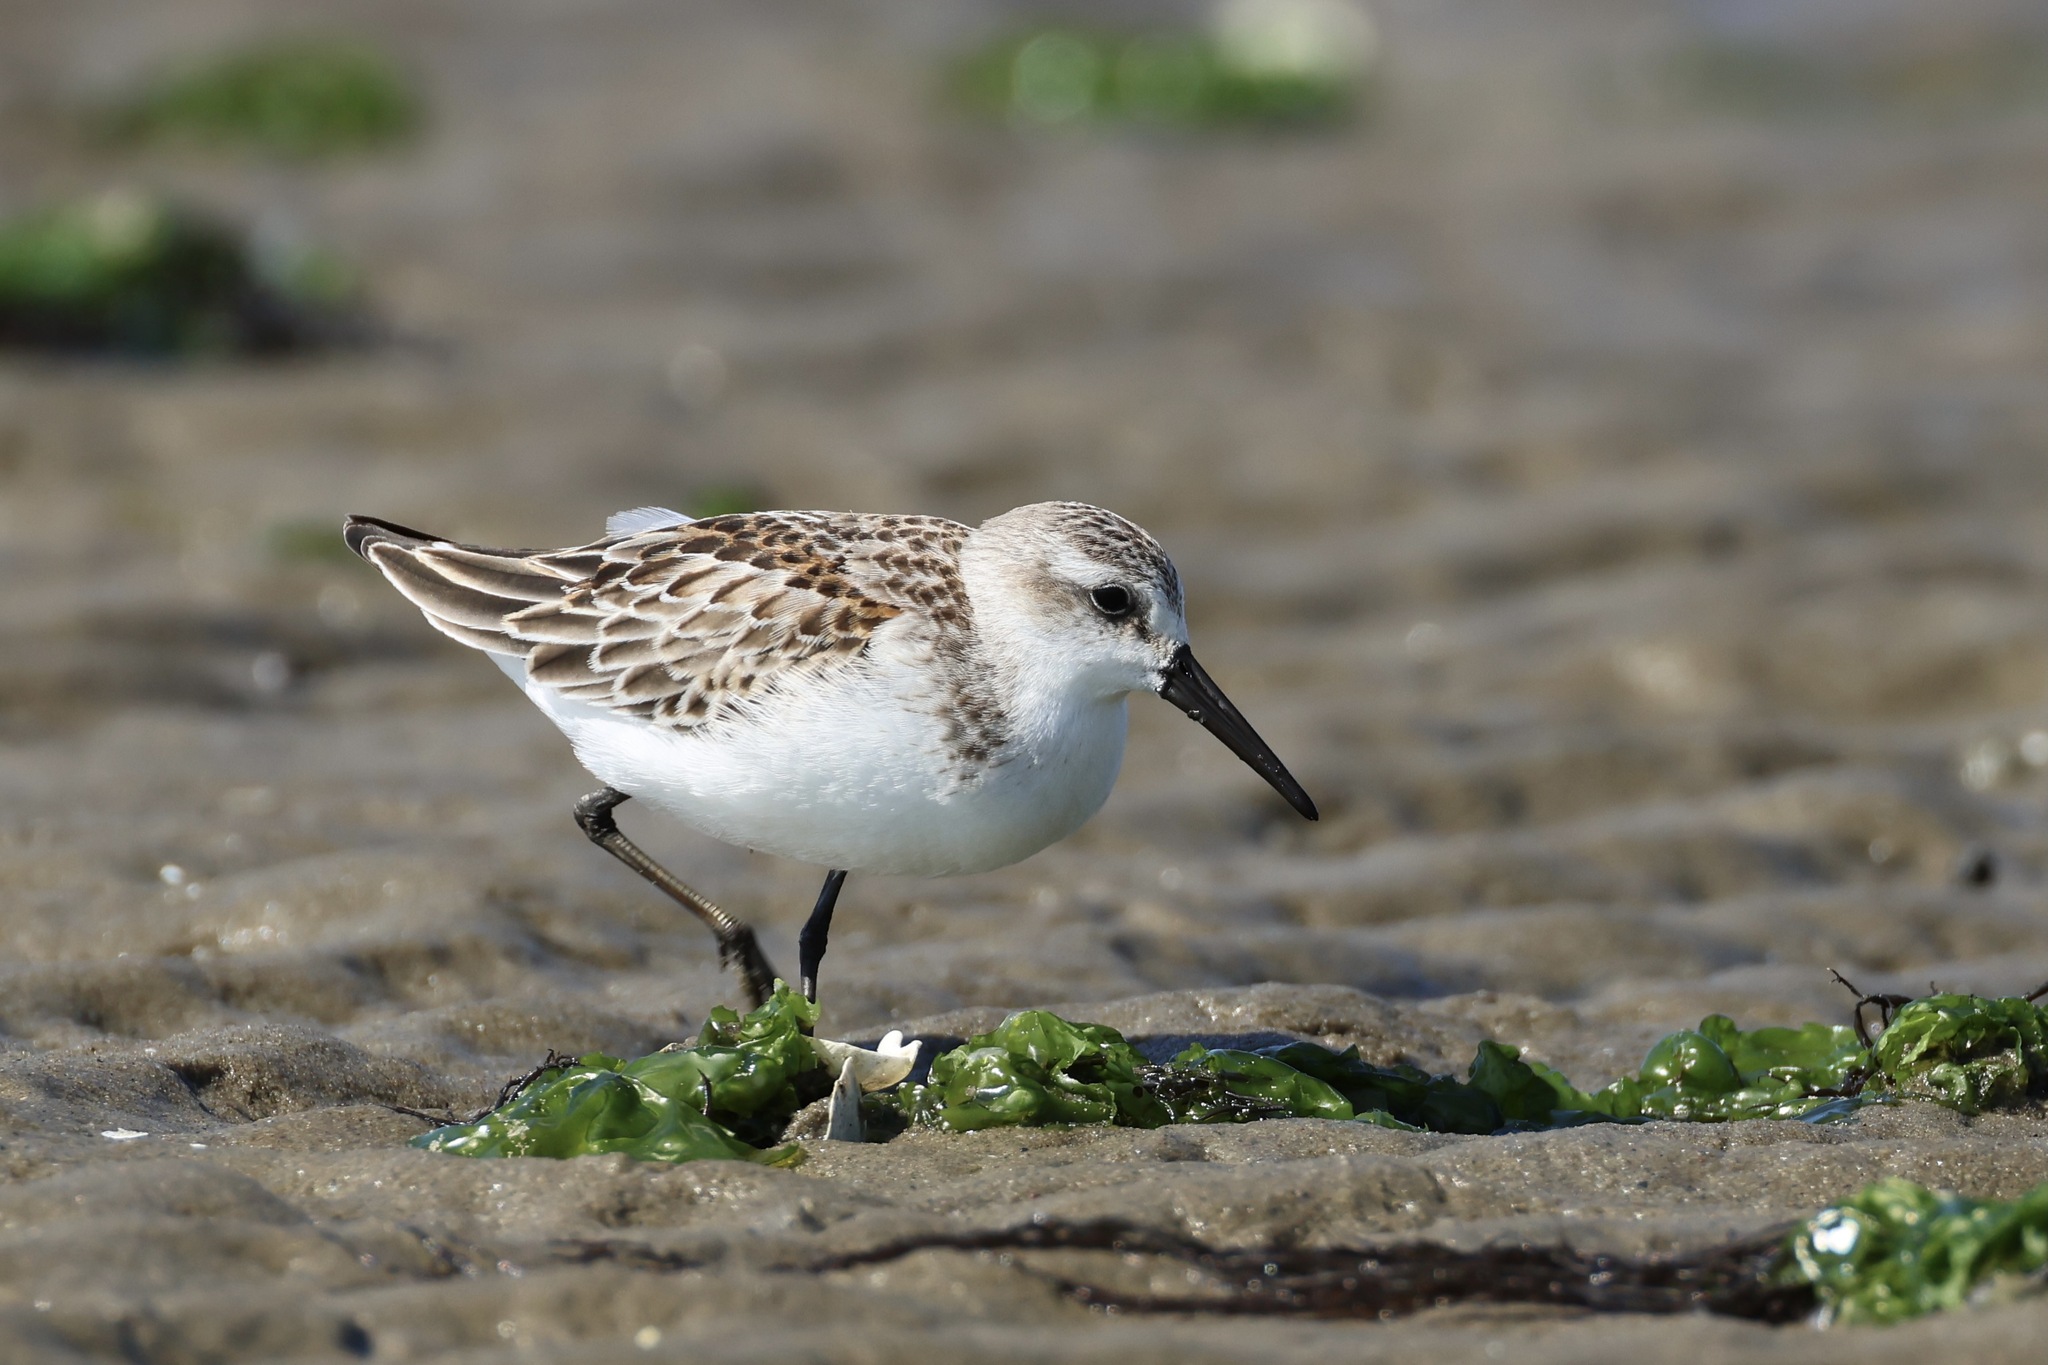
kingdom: Animalia
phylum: Chordata
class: Aves
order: Charadriiformes
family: Scolopacidae
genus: Calidris
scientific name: Calidris mauri
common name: Western sandpiper
